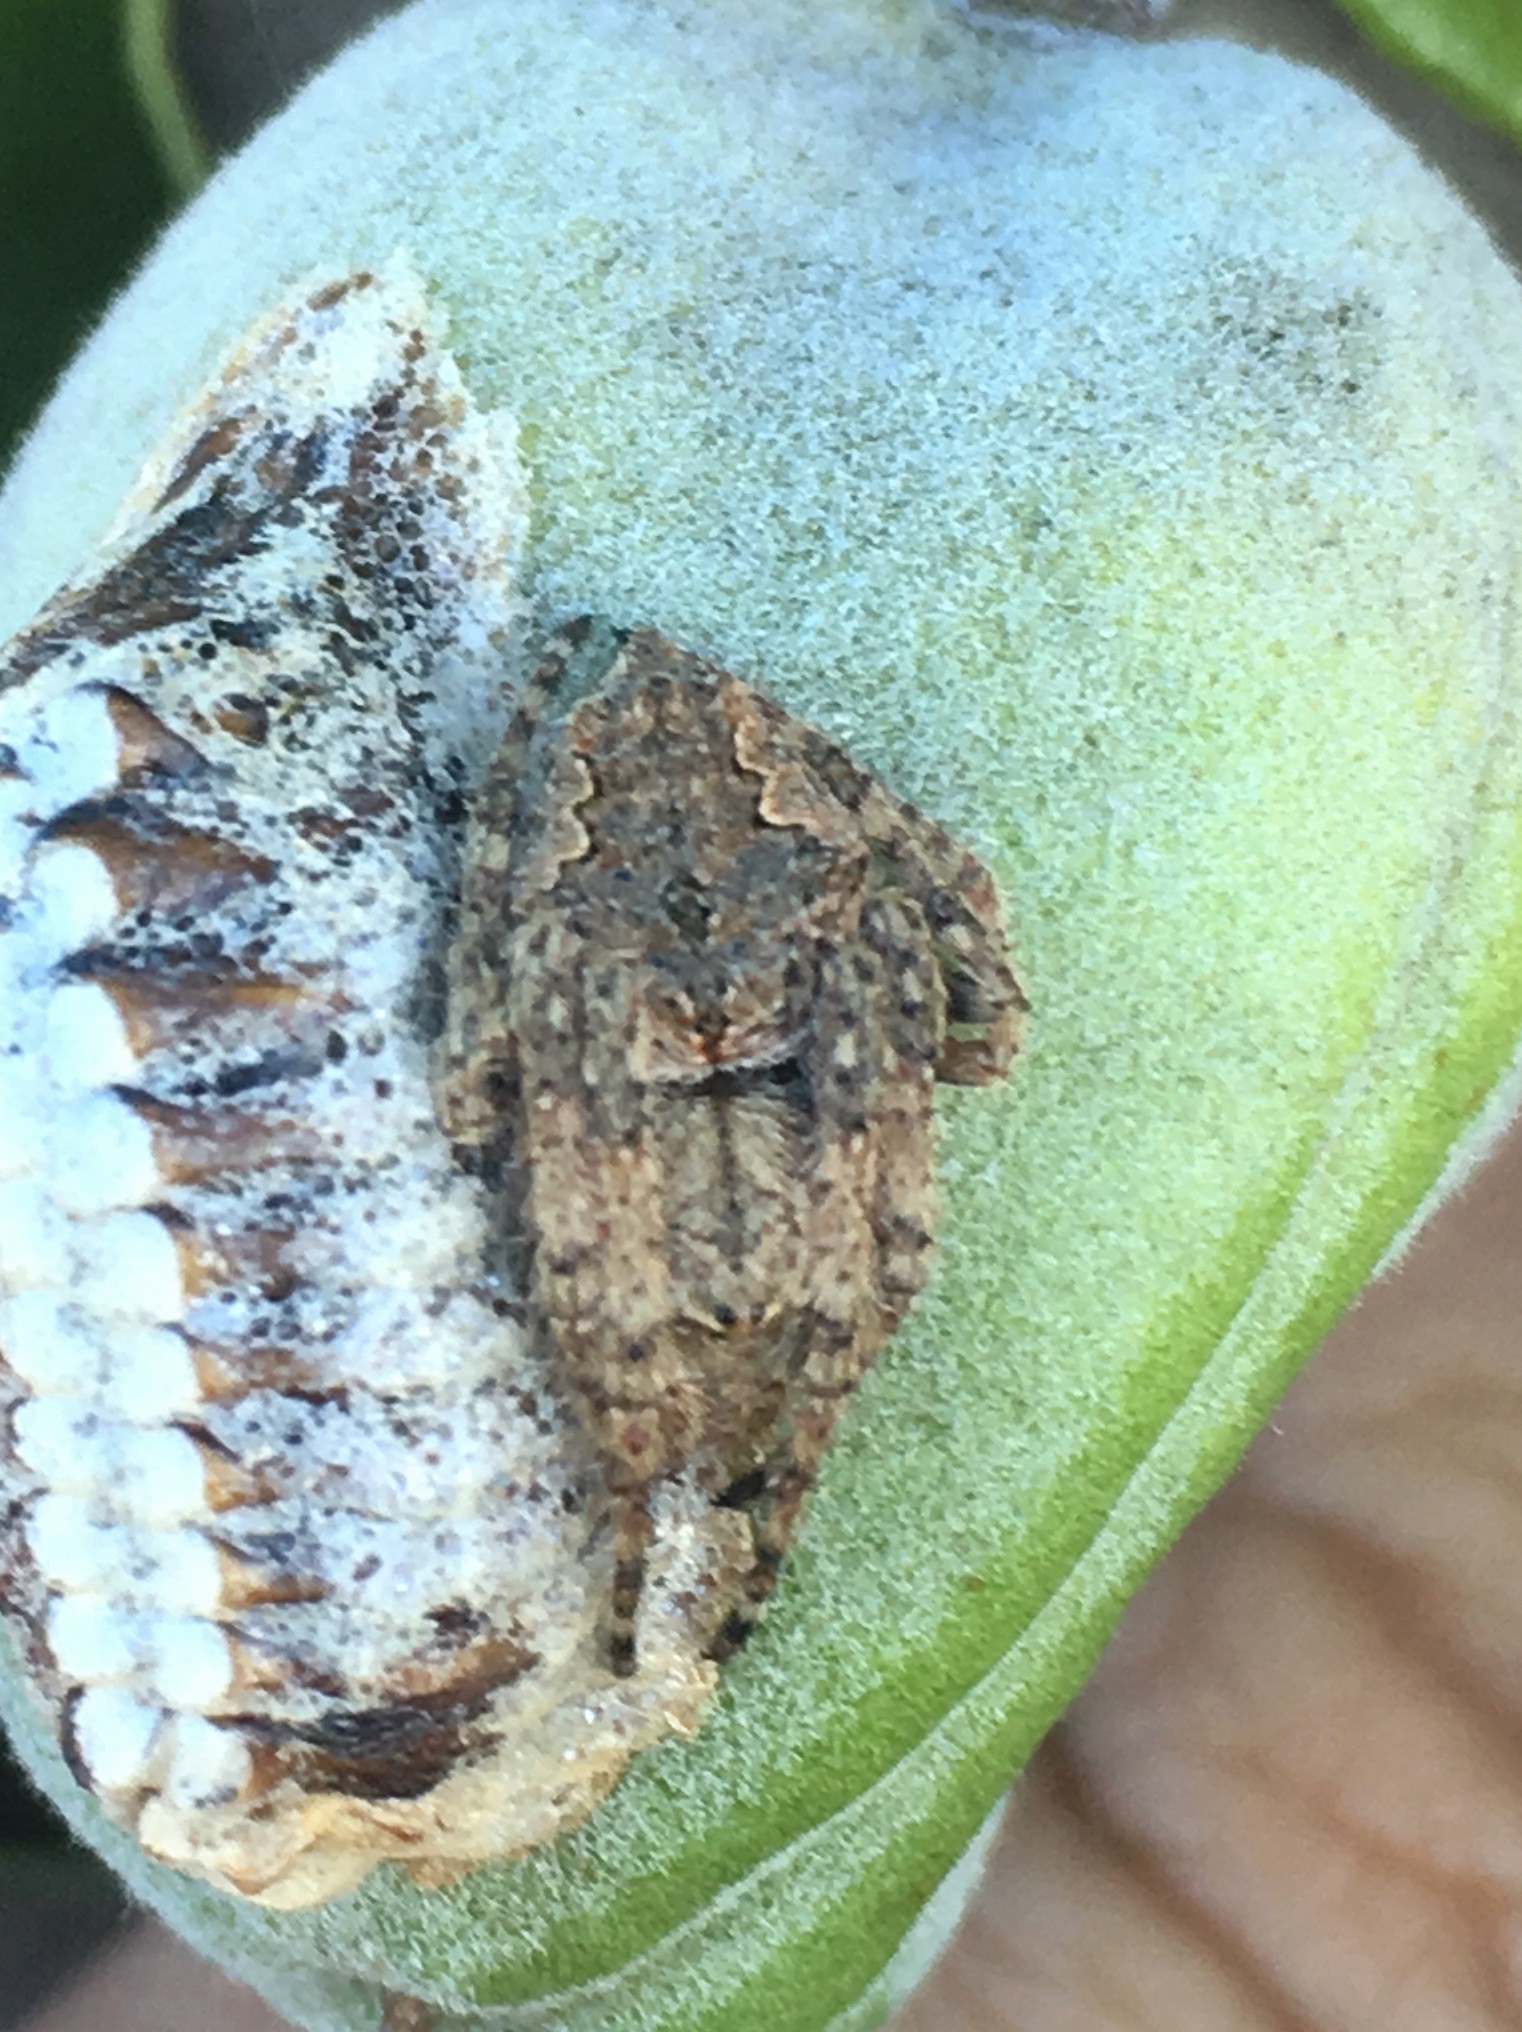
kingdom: Animalia
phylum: Arthropoda
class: Arachnida
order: Araneae
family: Araneidae
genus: Eriophora
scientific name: Eriophora pustulosa
